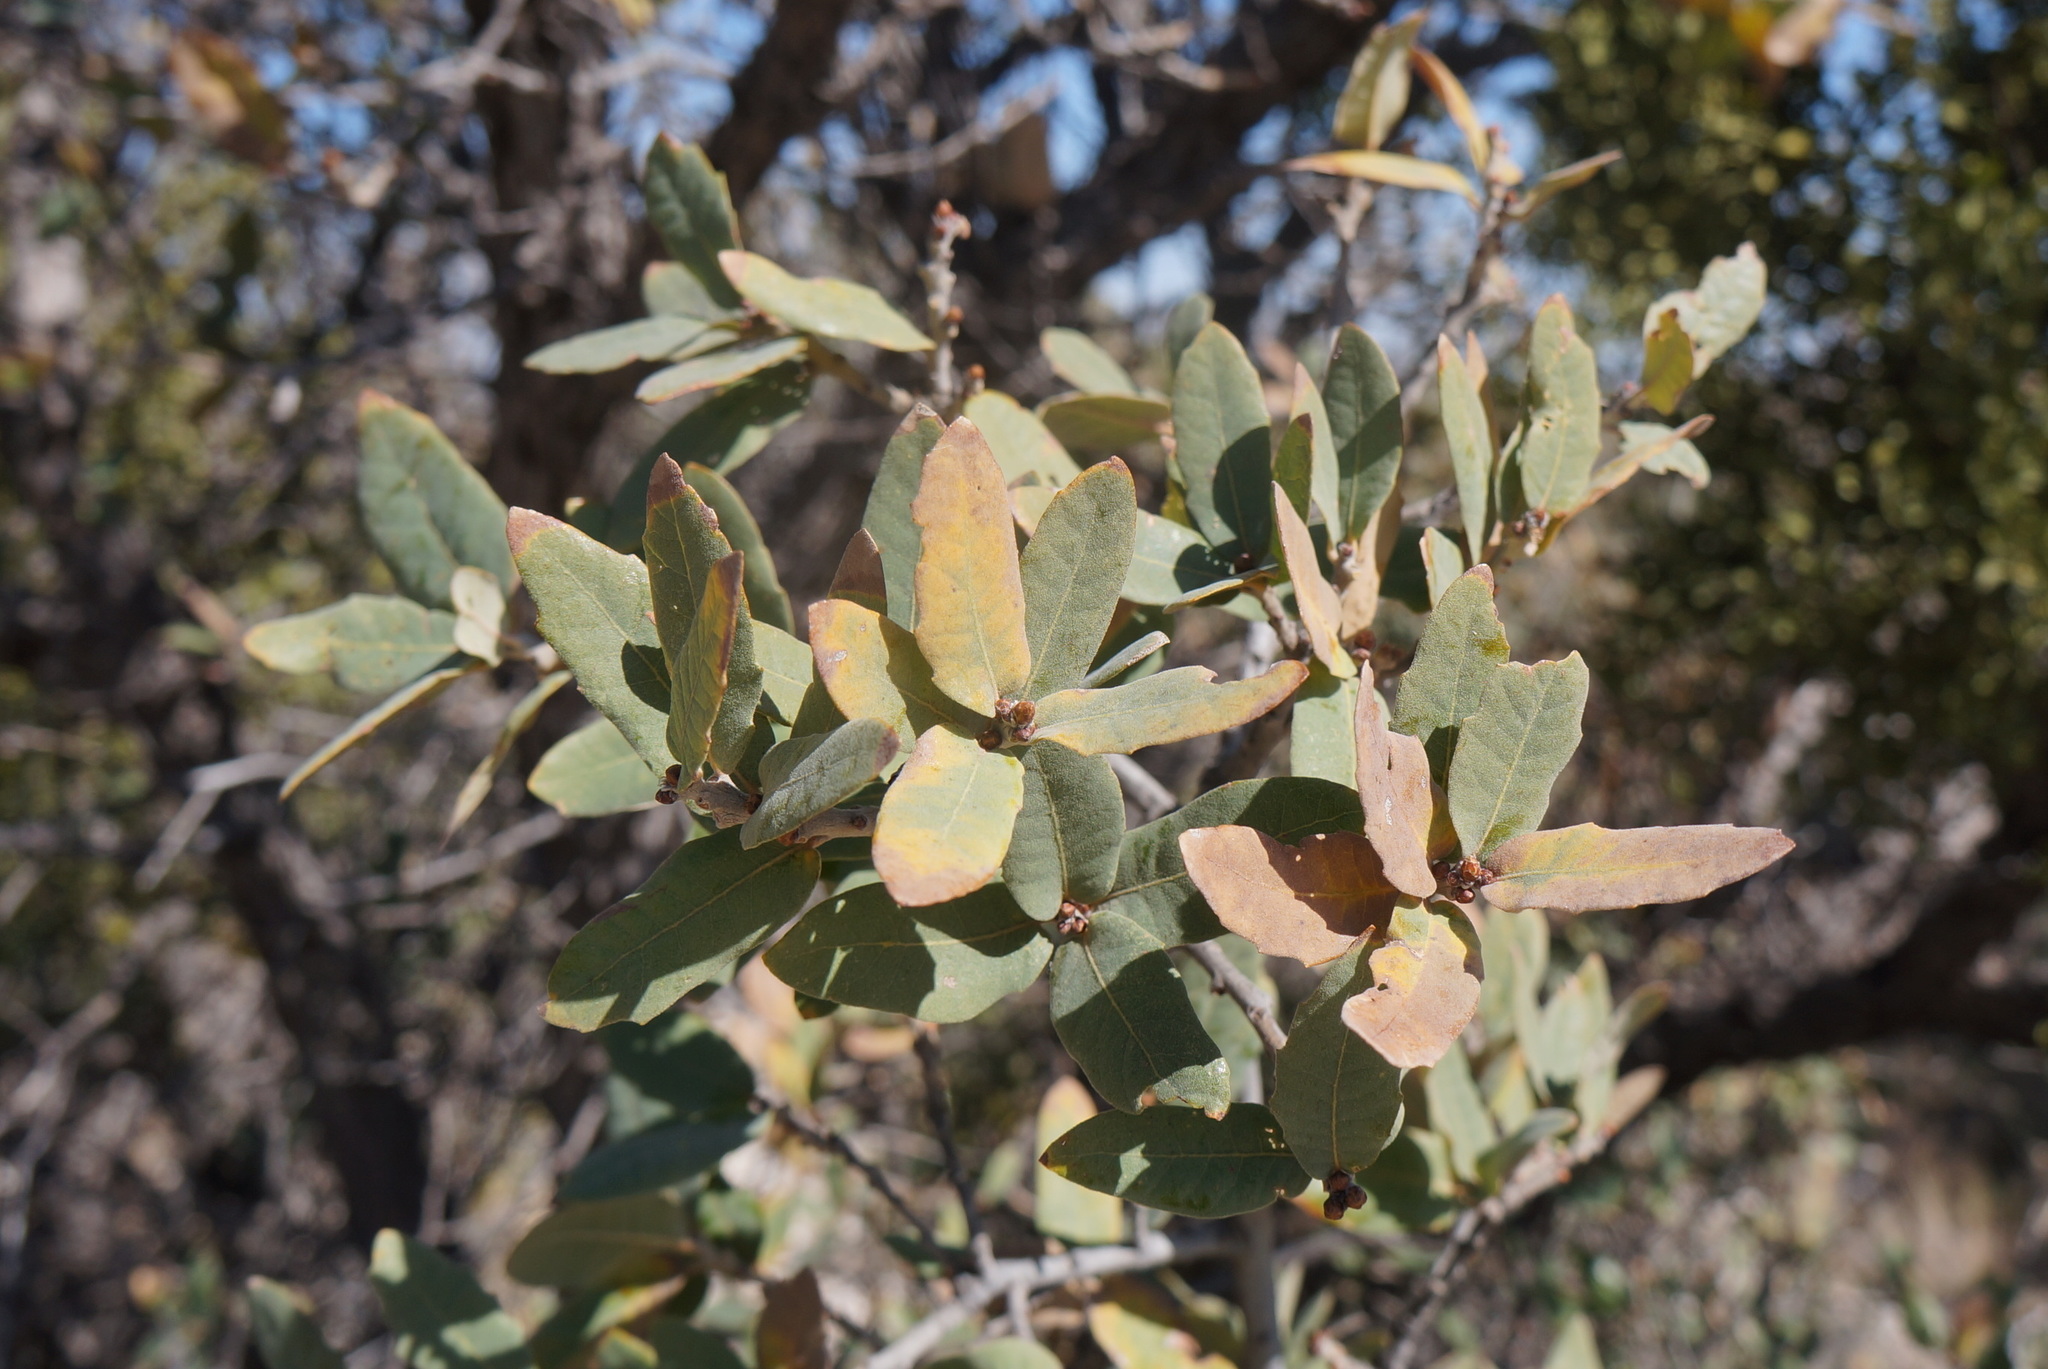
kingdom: Plantae
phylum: Tracheophyta
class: Magnoliopsida
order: Fagales
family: Fagaceae
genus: Quercus
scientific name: Quercus grisea
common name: Gray oak
